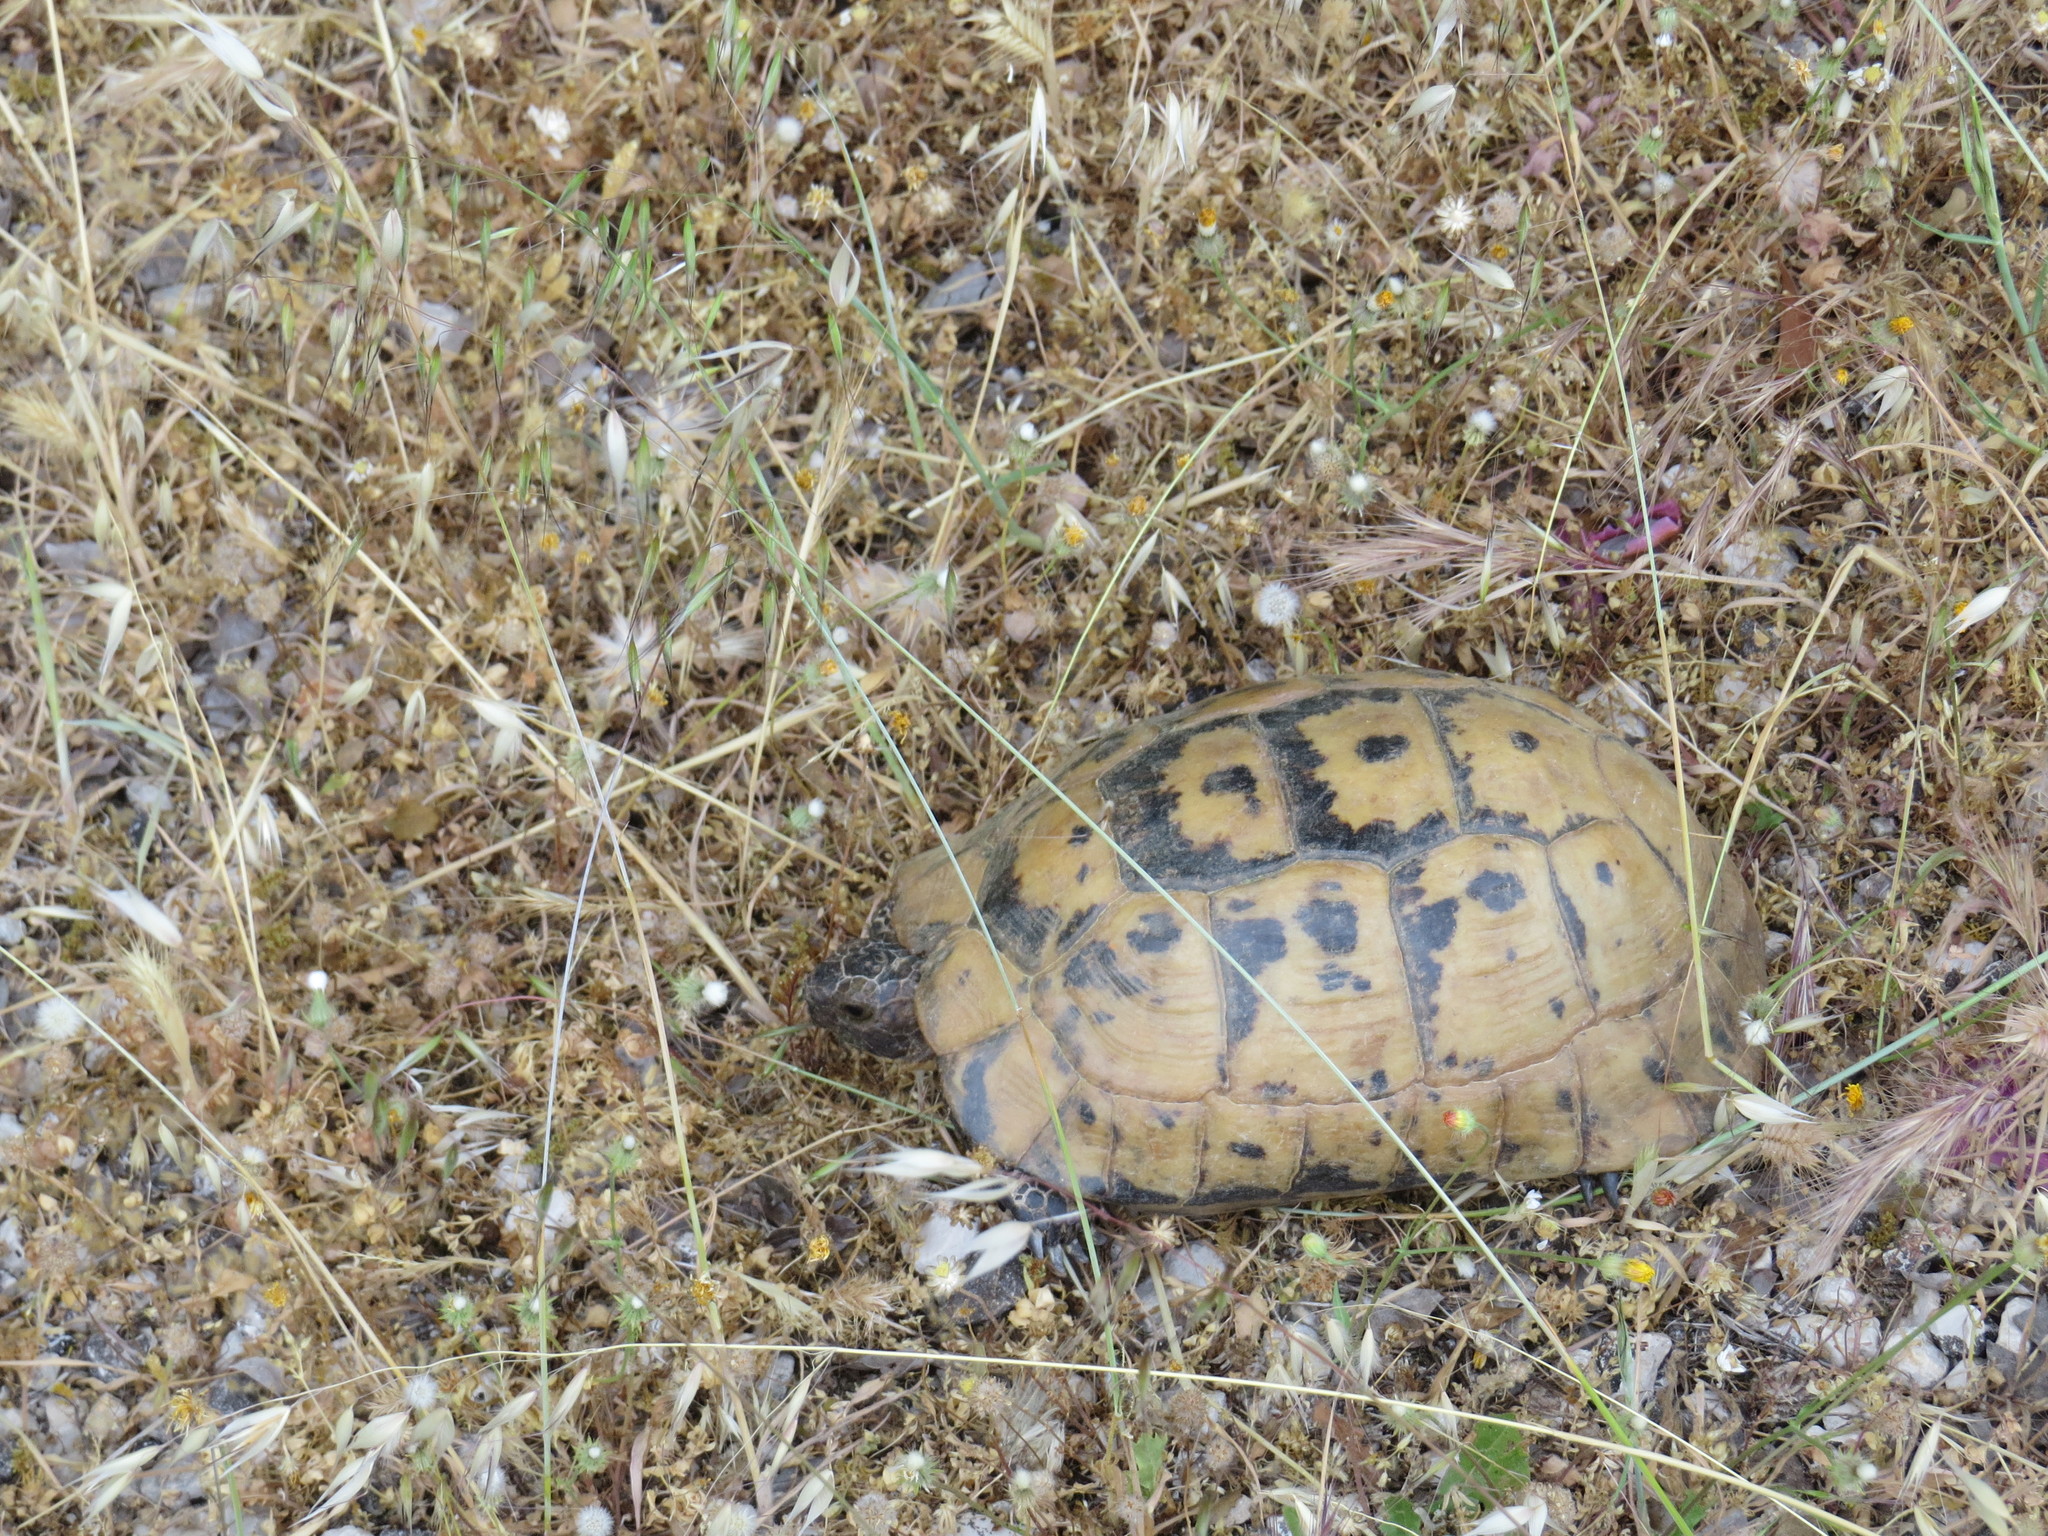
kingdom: Animalia
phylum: Chordata
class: Testudines
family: Testudinidae
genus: Testudo
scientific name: Testudo graeca
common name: Common tortoise
